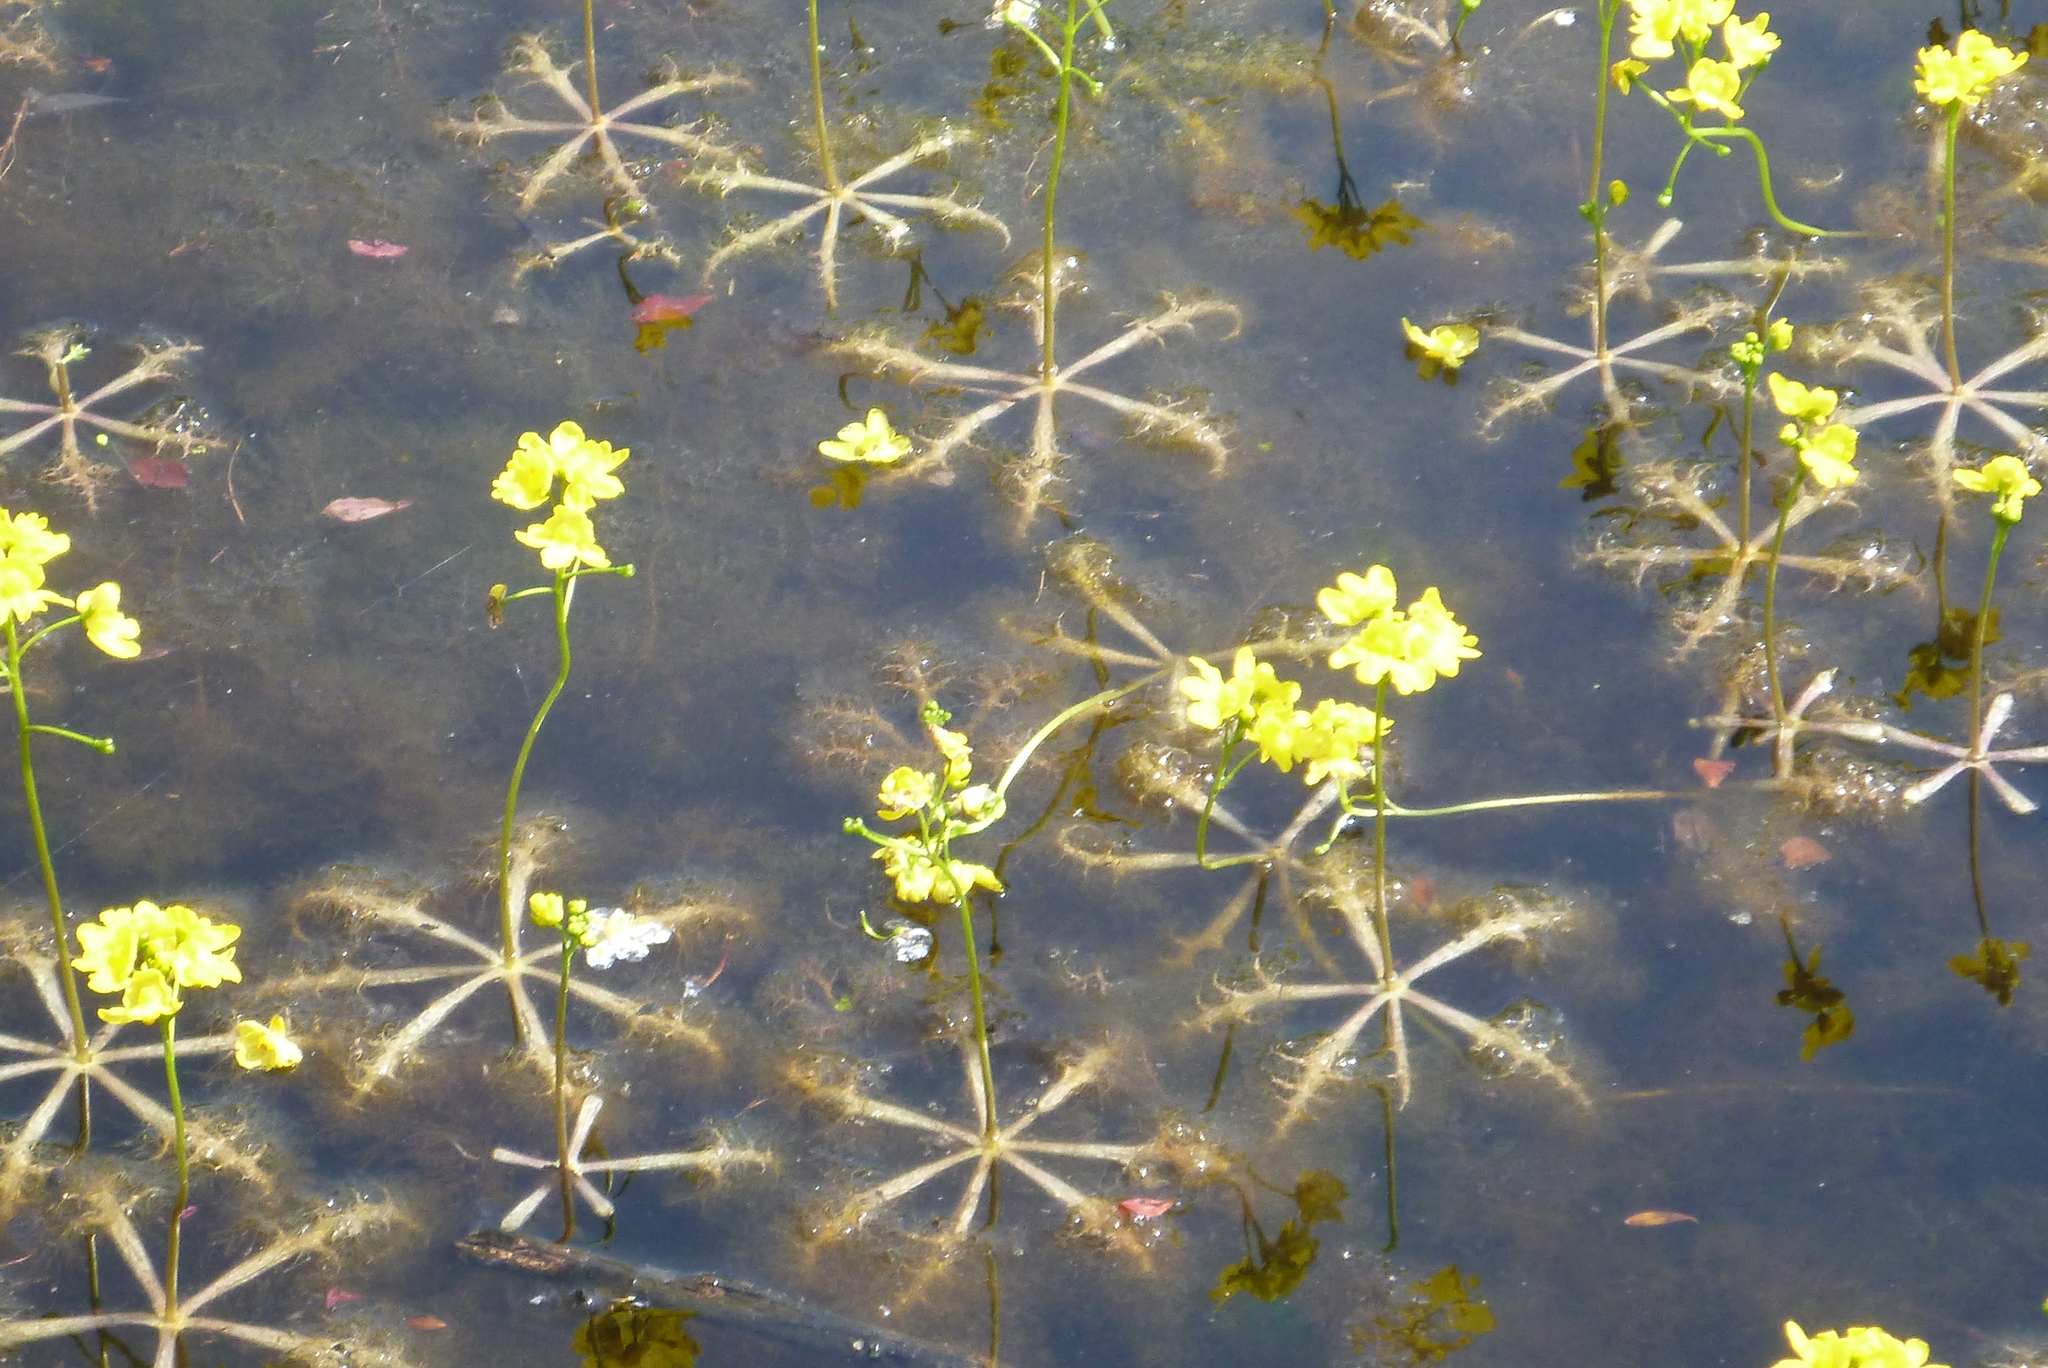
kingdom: Plantae
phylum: Tracheophyta
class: Magnoliopsida
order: Lamiales
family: Lentibulariaceae
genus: Utricularia
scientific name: Utricularia inflata
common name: Floating bladderwort
